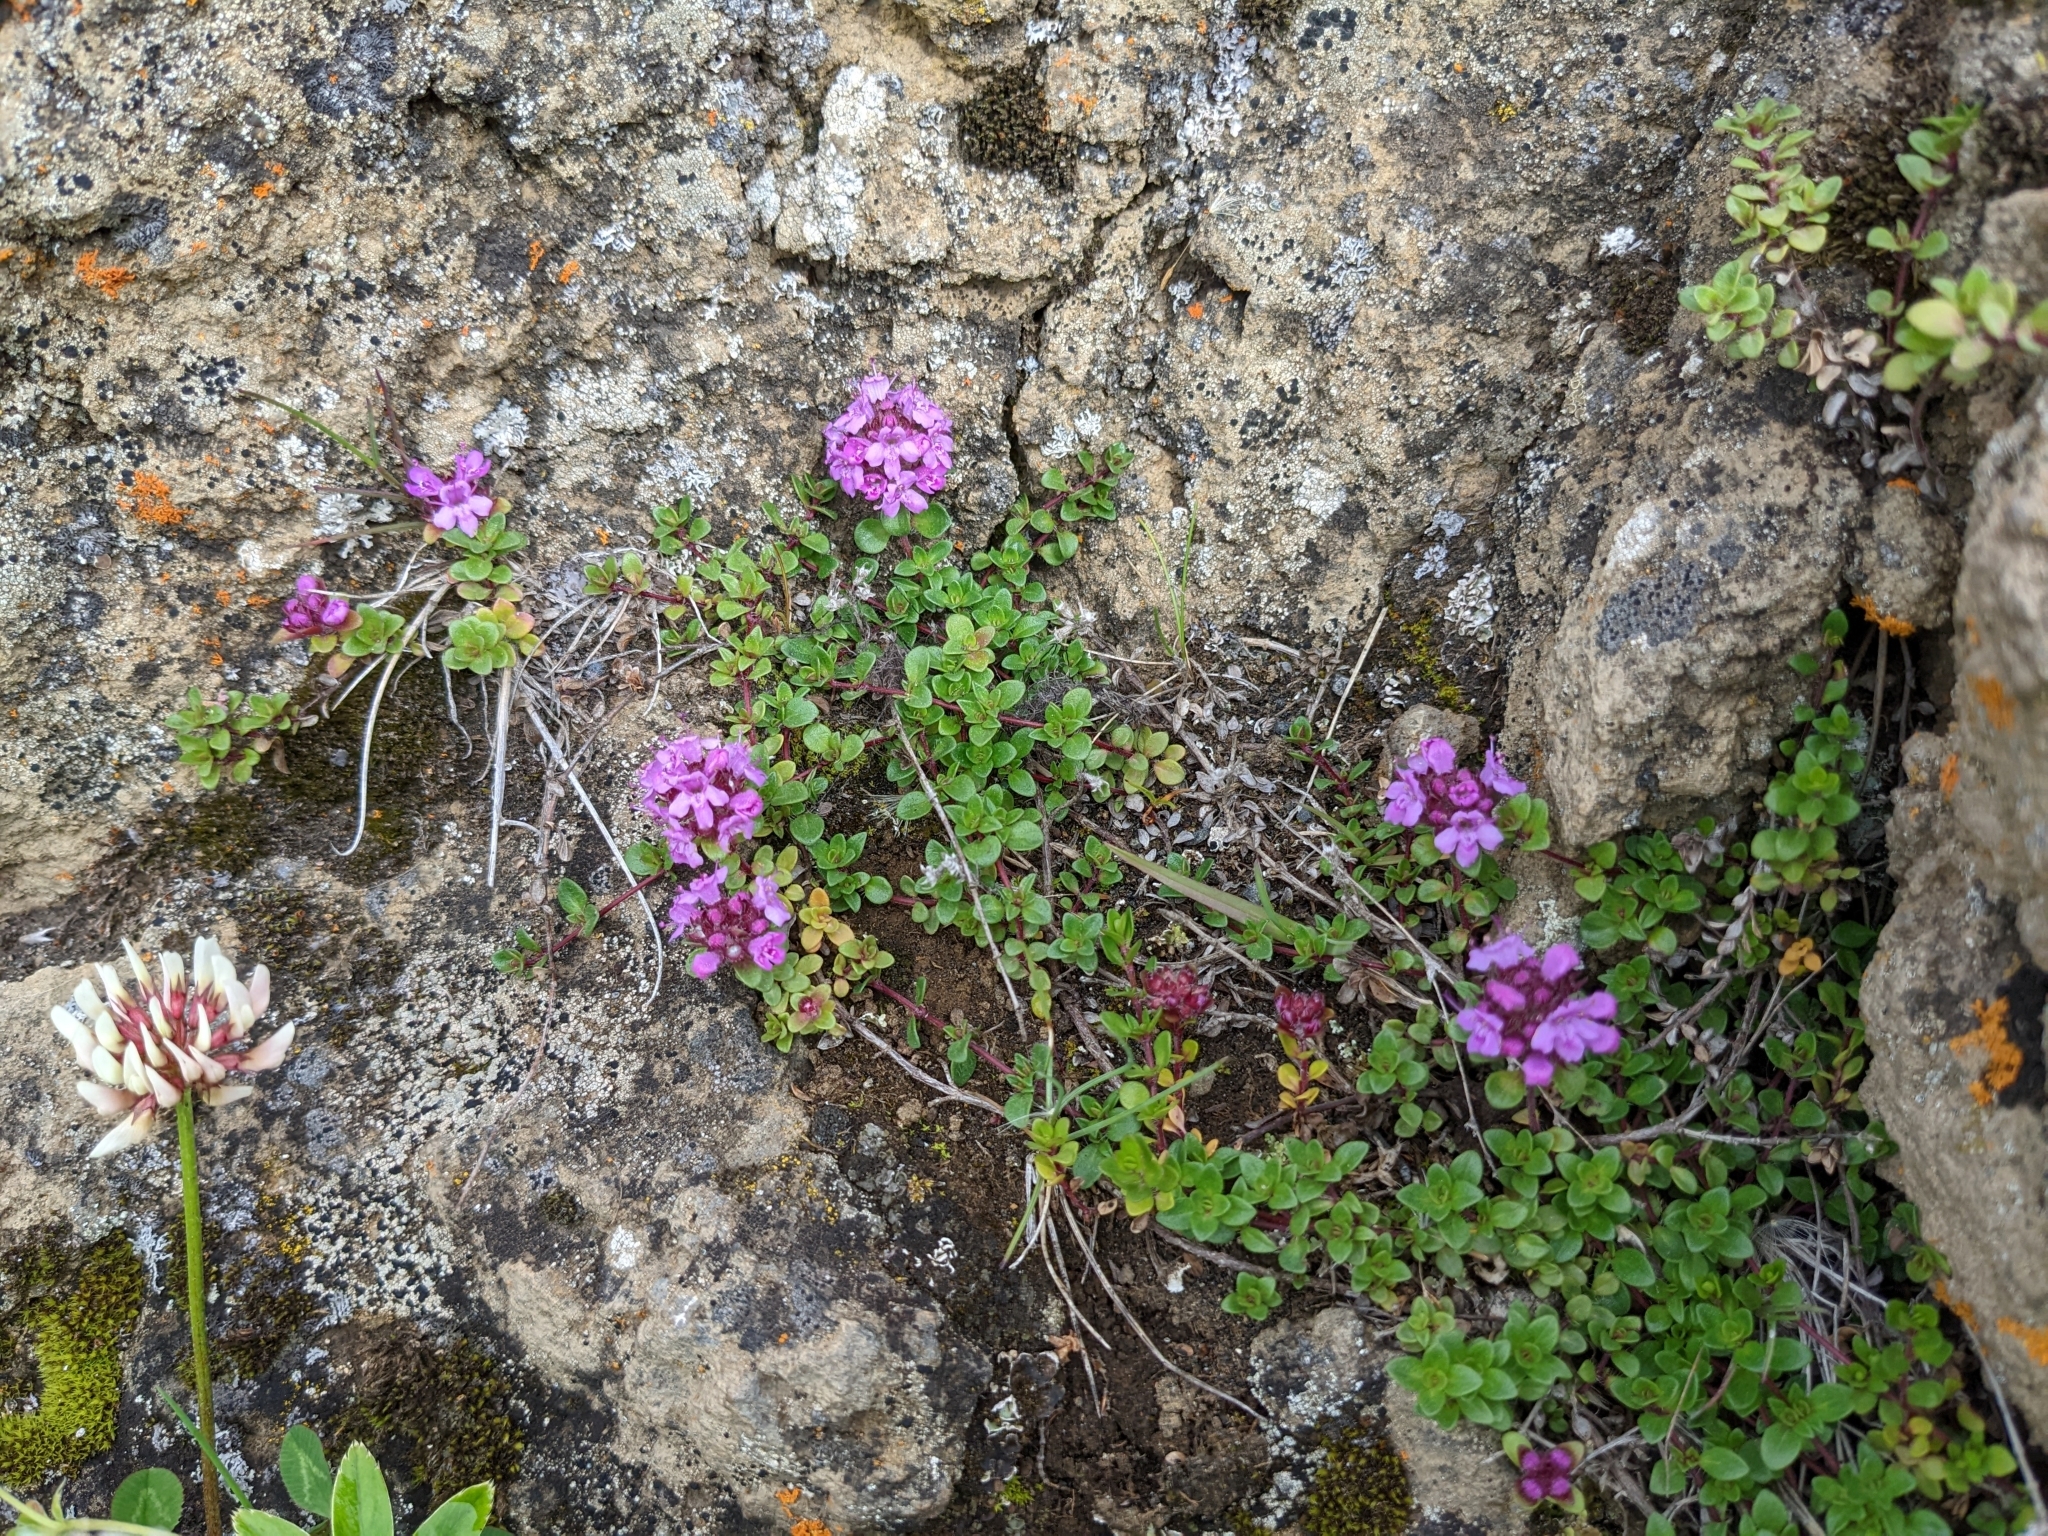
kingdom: Plantae
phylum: Tracheophyta
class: Magnoliopsida
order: Lamiales
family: Lamiaceae
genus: Thymus
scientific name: Thymus praecox
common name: Wild thyme
